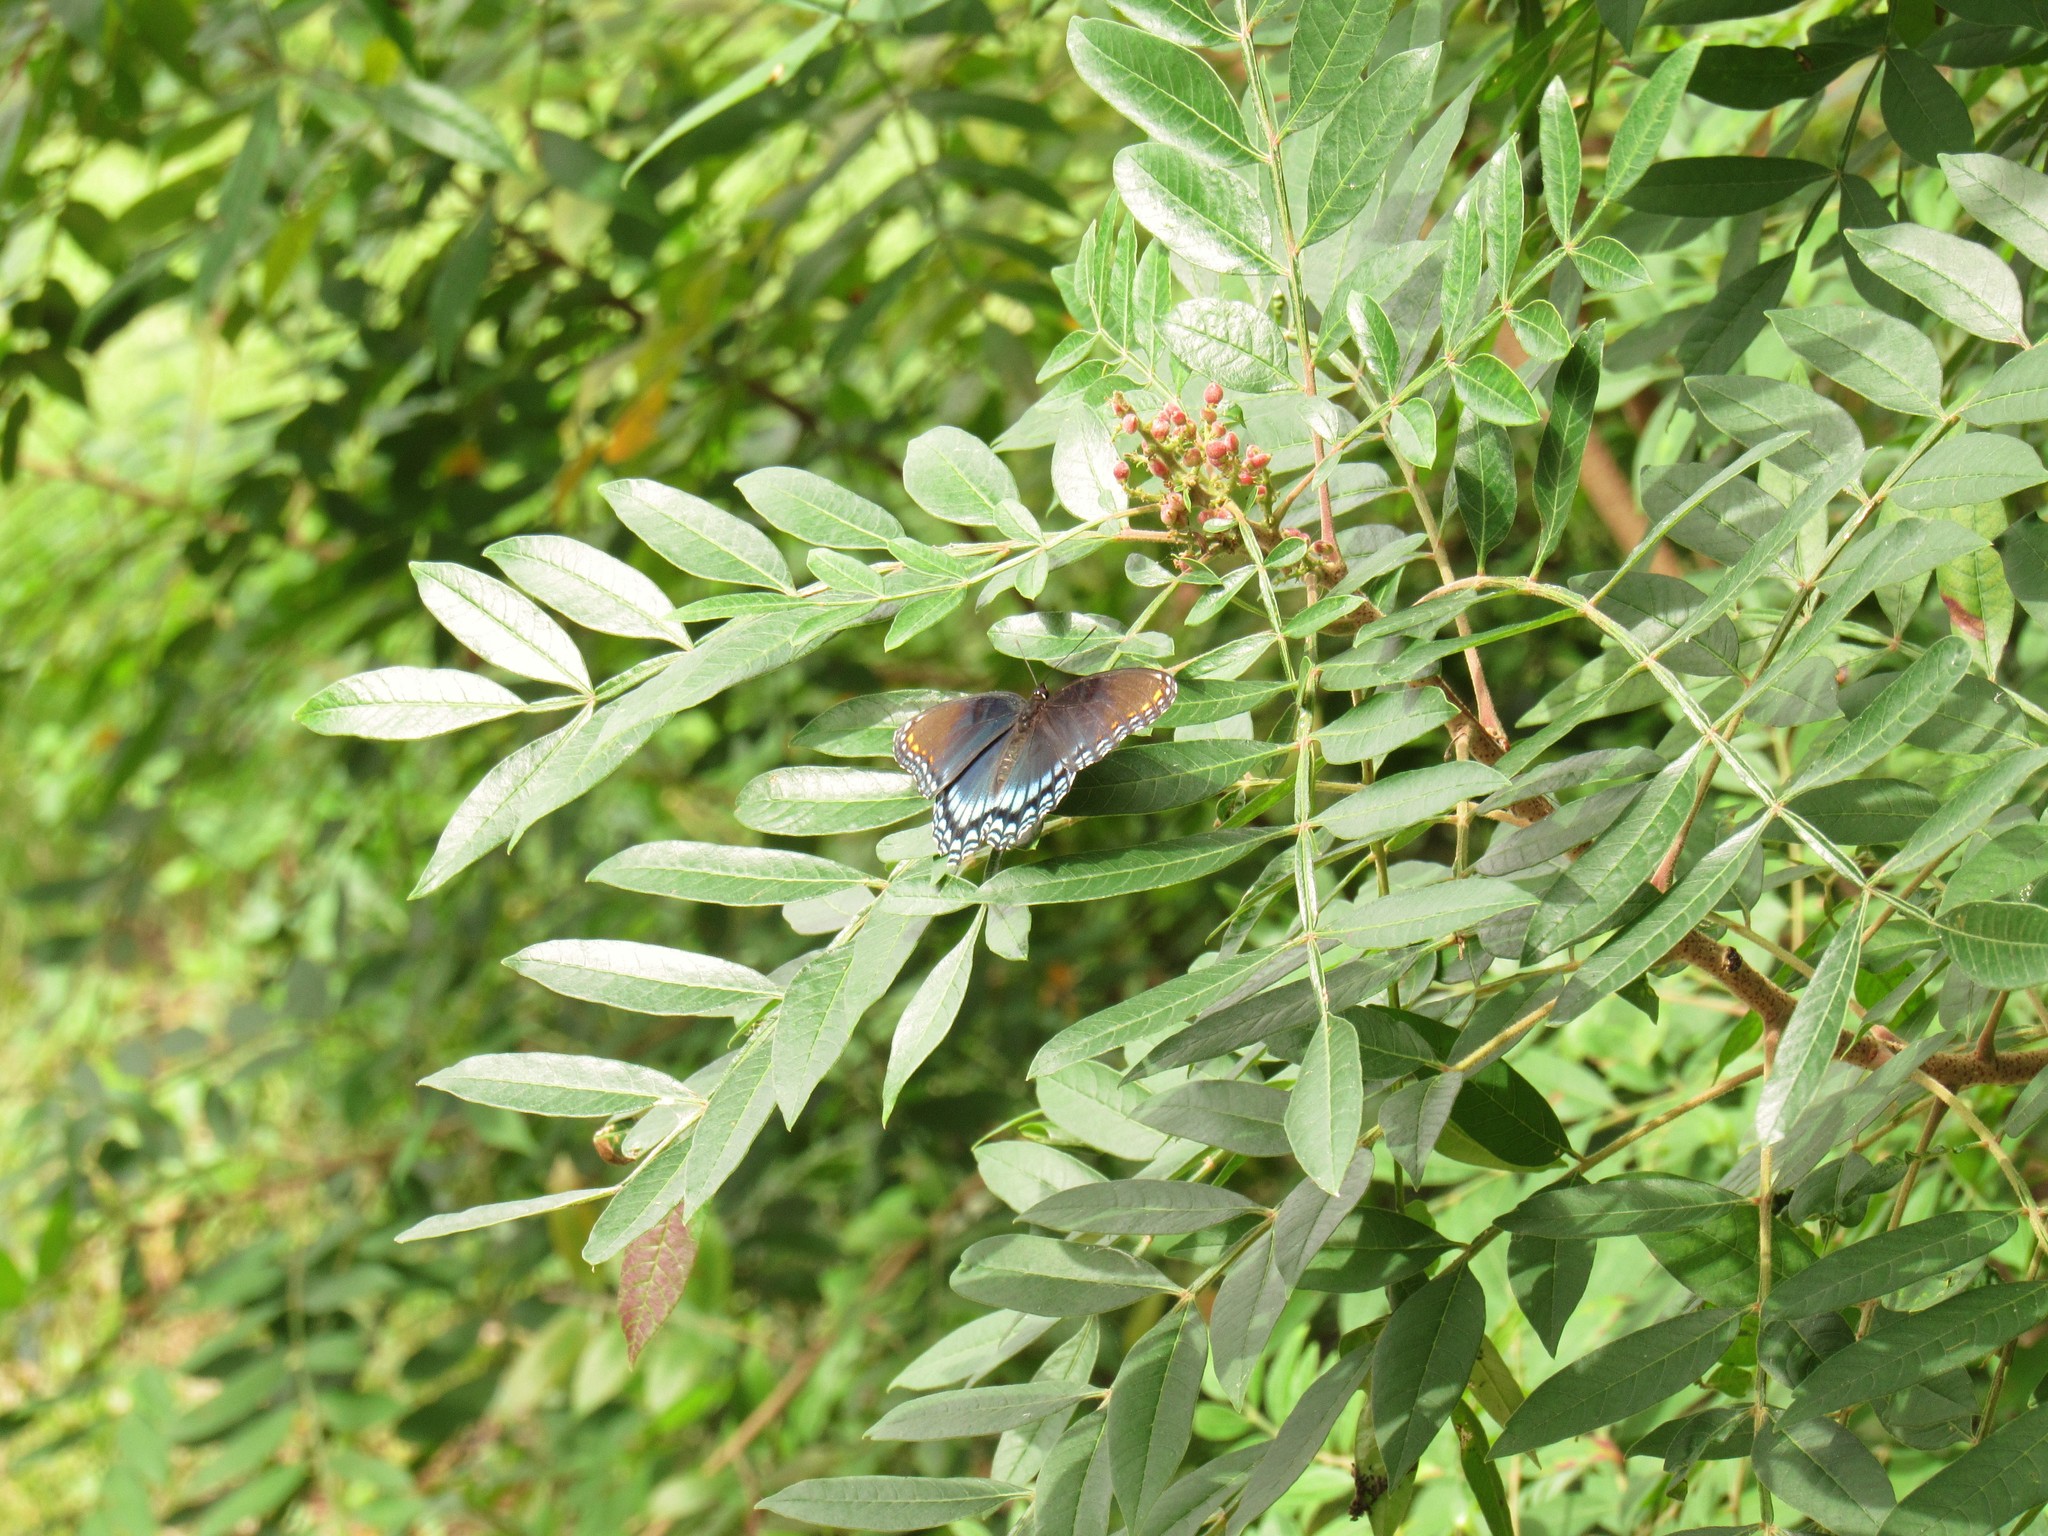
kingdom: Animalia
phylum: Arthropoda
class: Insecta
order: Lepidoptera
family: Nymphalidae
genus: Limenitis
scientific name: Limenitis astyanax
